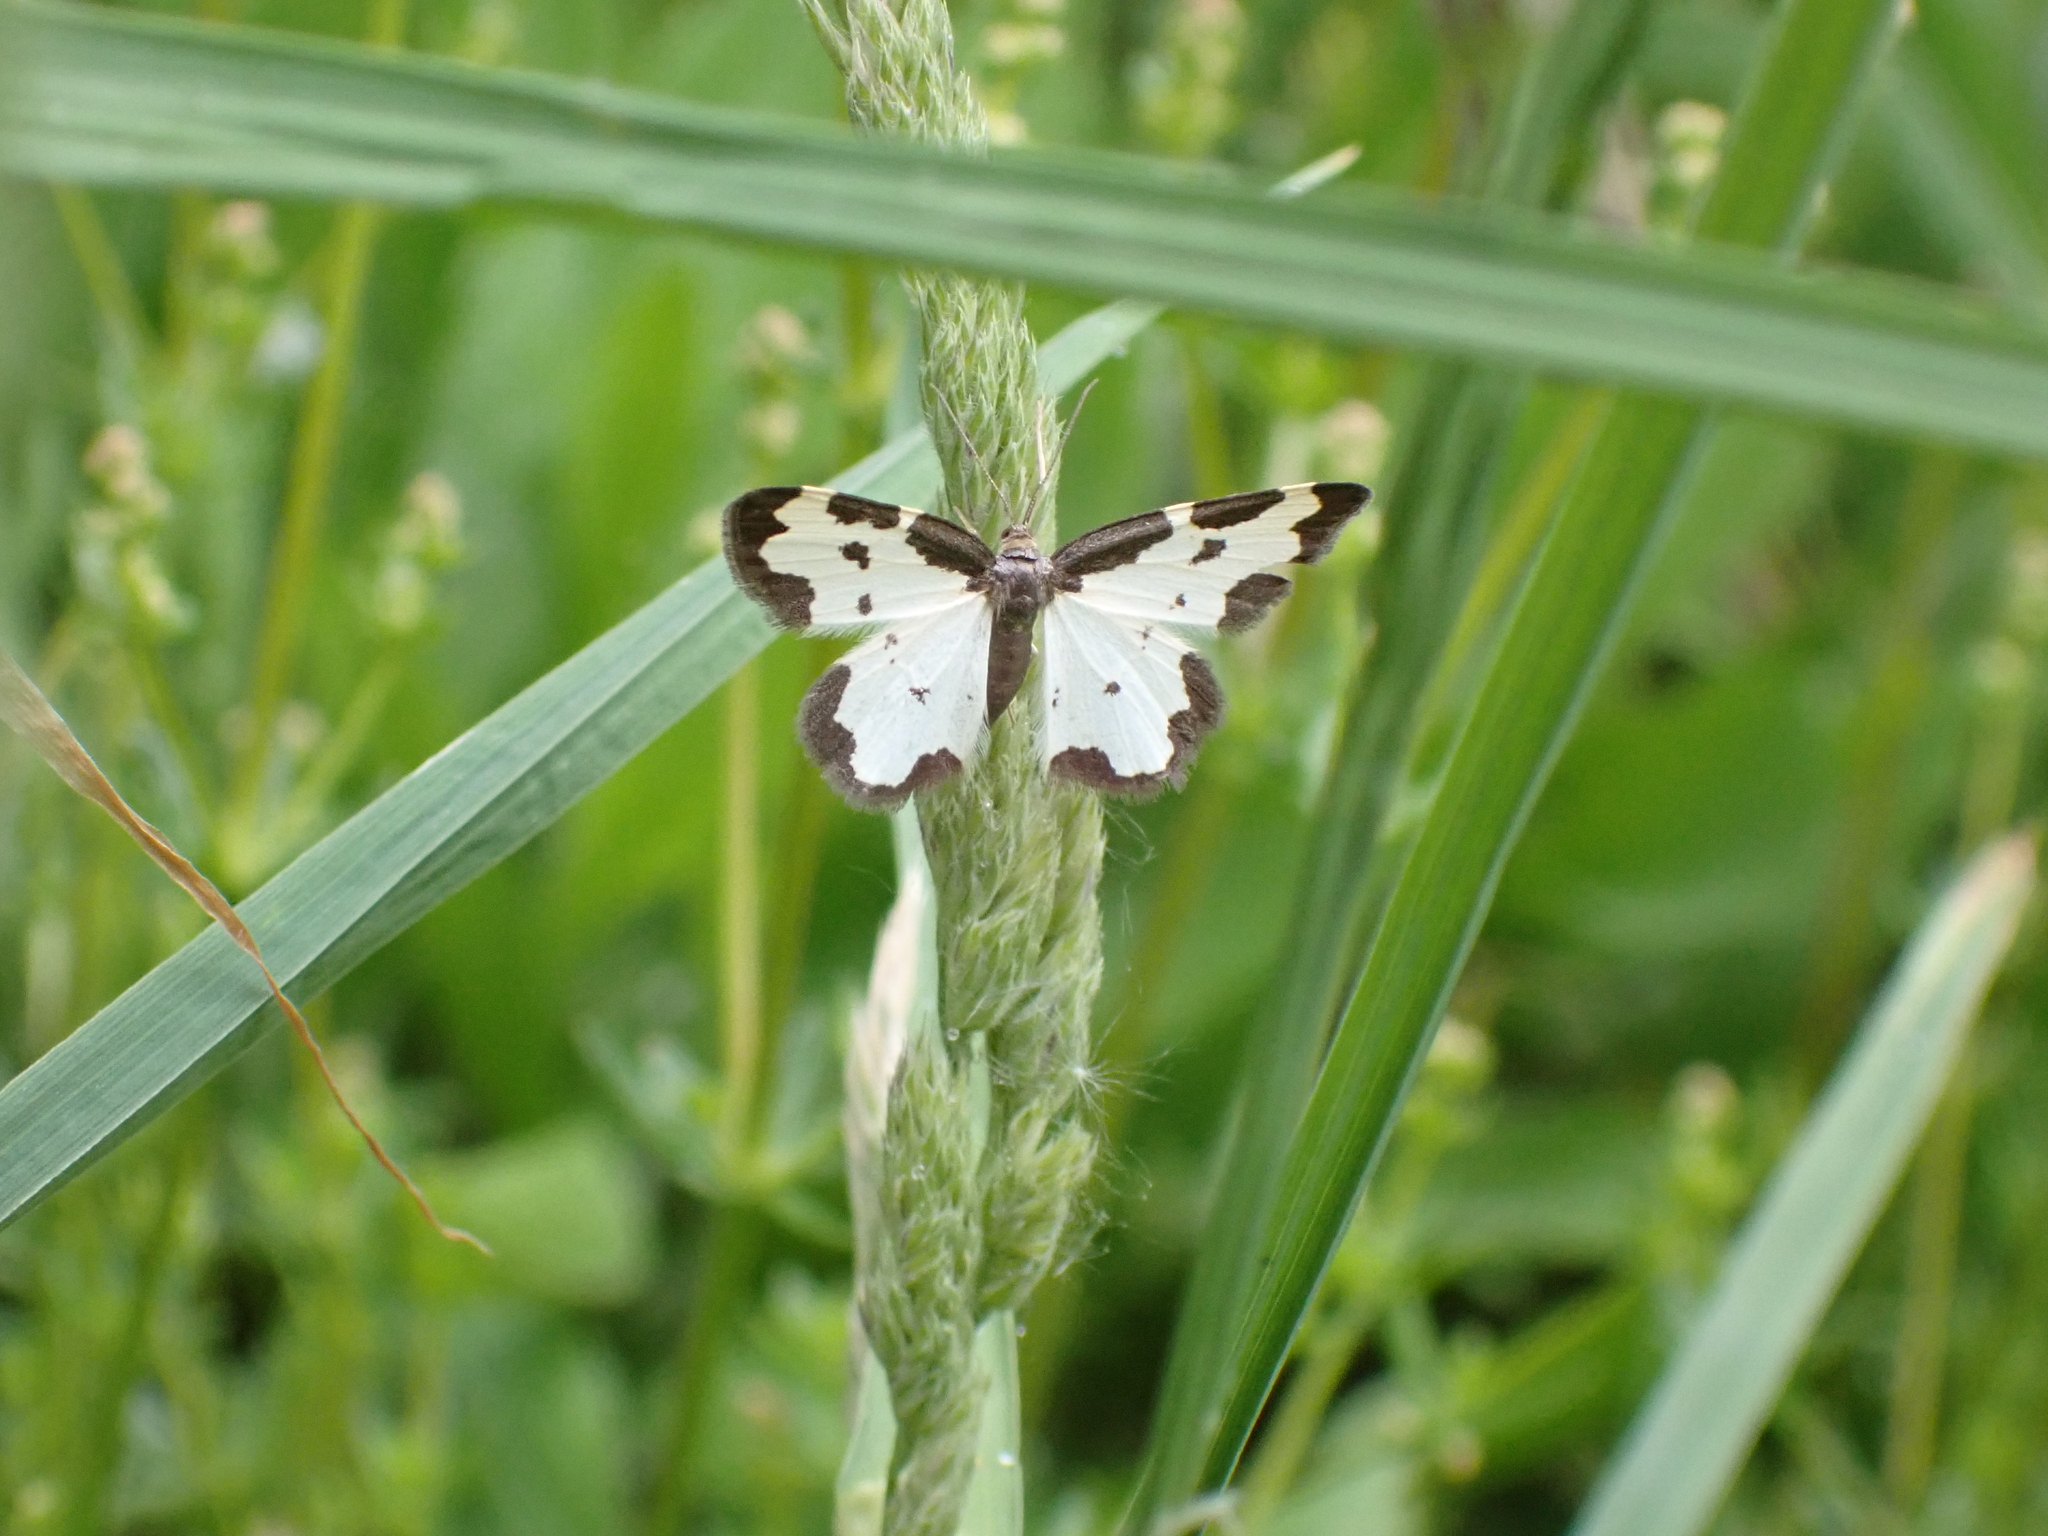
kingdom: Animalia
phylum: Arthropoda
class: Insecta
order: Lepidoptera
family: Geometridae
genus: Lomaspilis
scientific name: Lomaspilis marginata
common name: Clouded border
